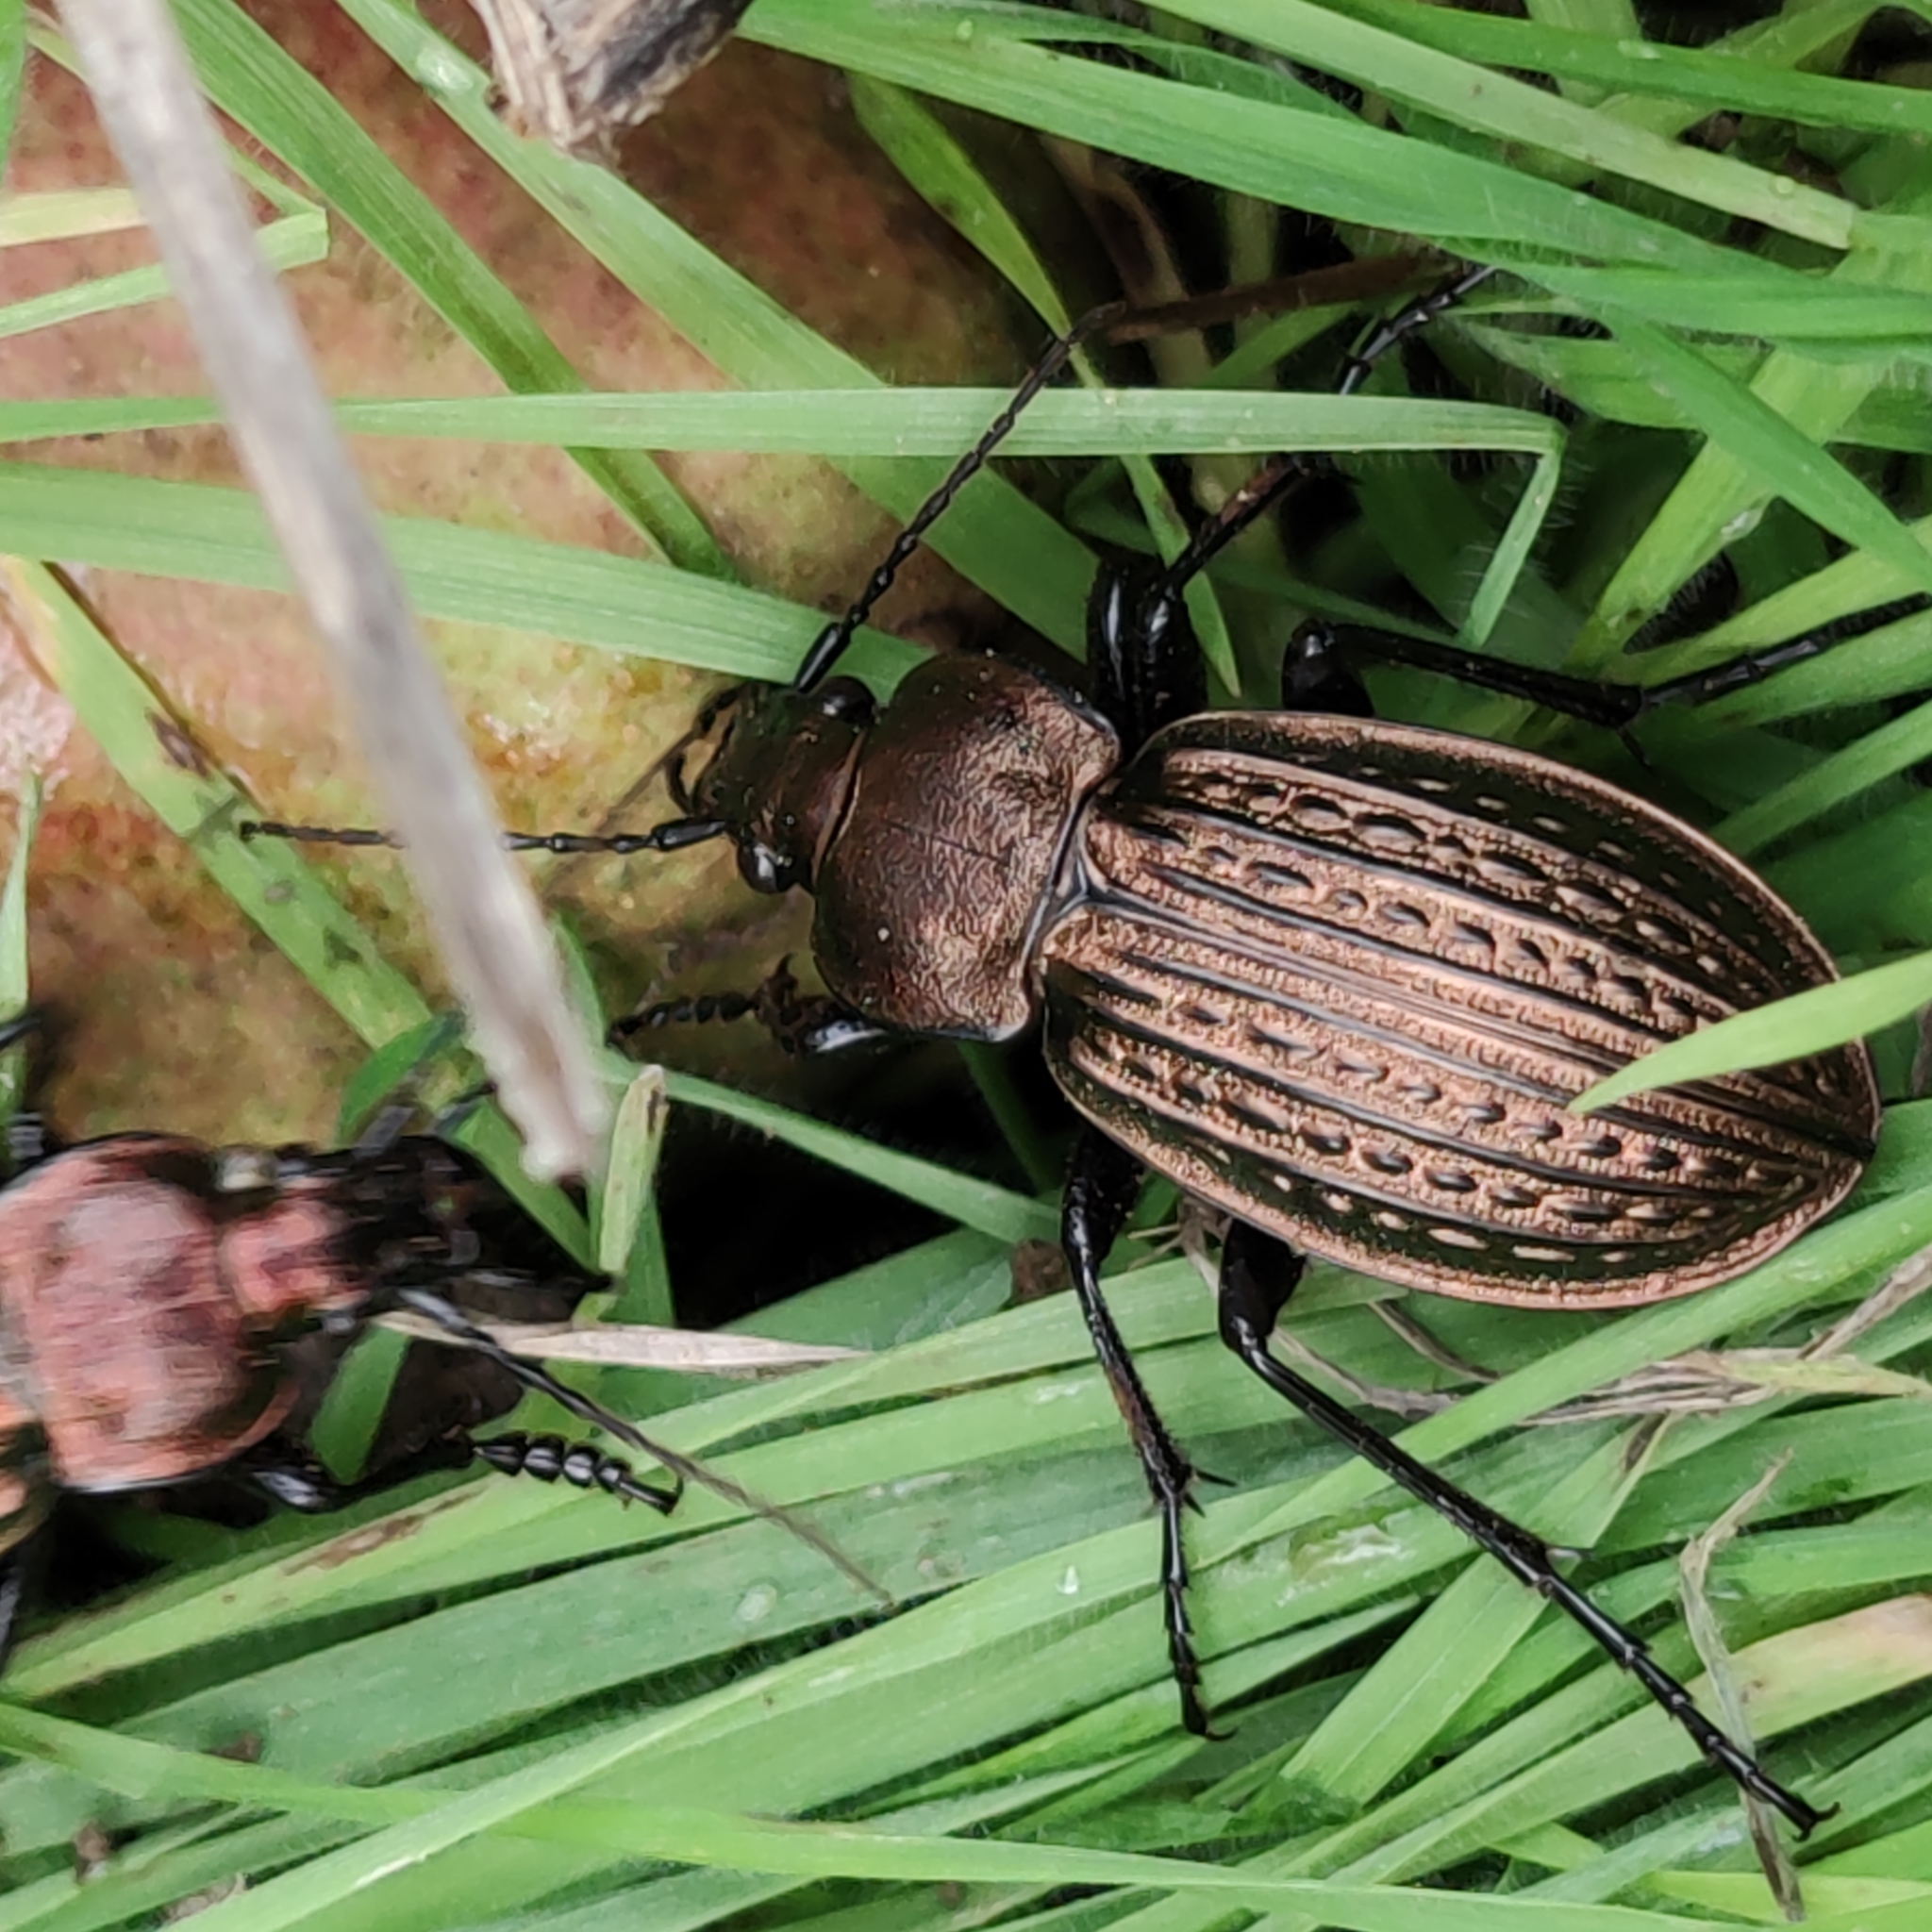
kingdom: Animalia
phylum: Arthropoda
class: Insecta
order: Coleoptera
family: Carabidae
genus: Carabus
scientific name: Carabus ulrichii
